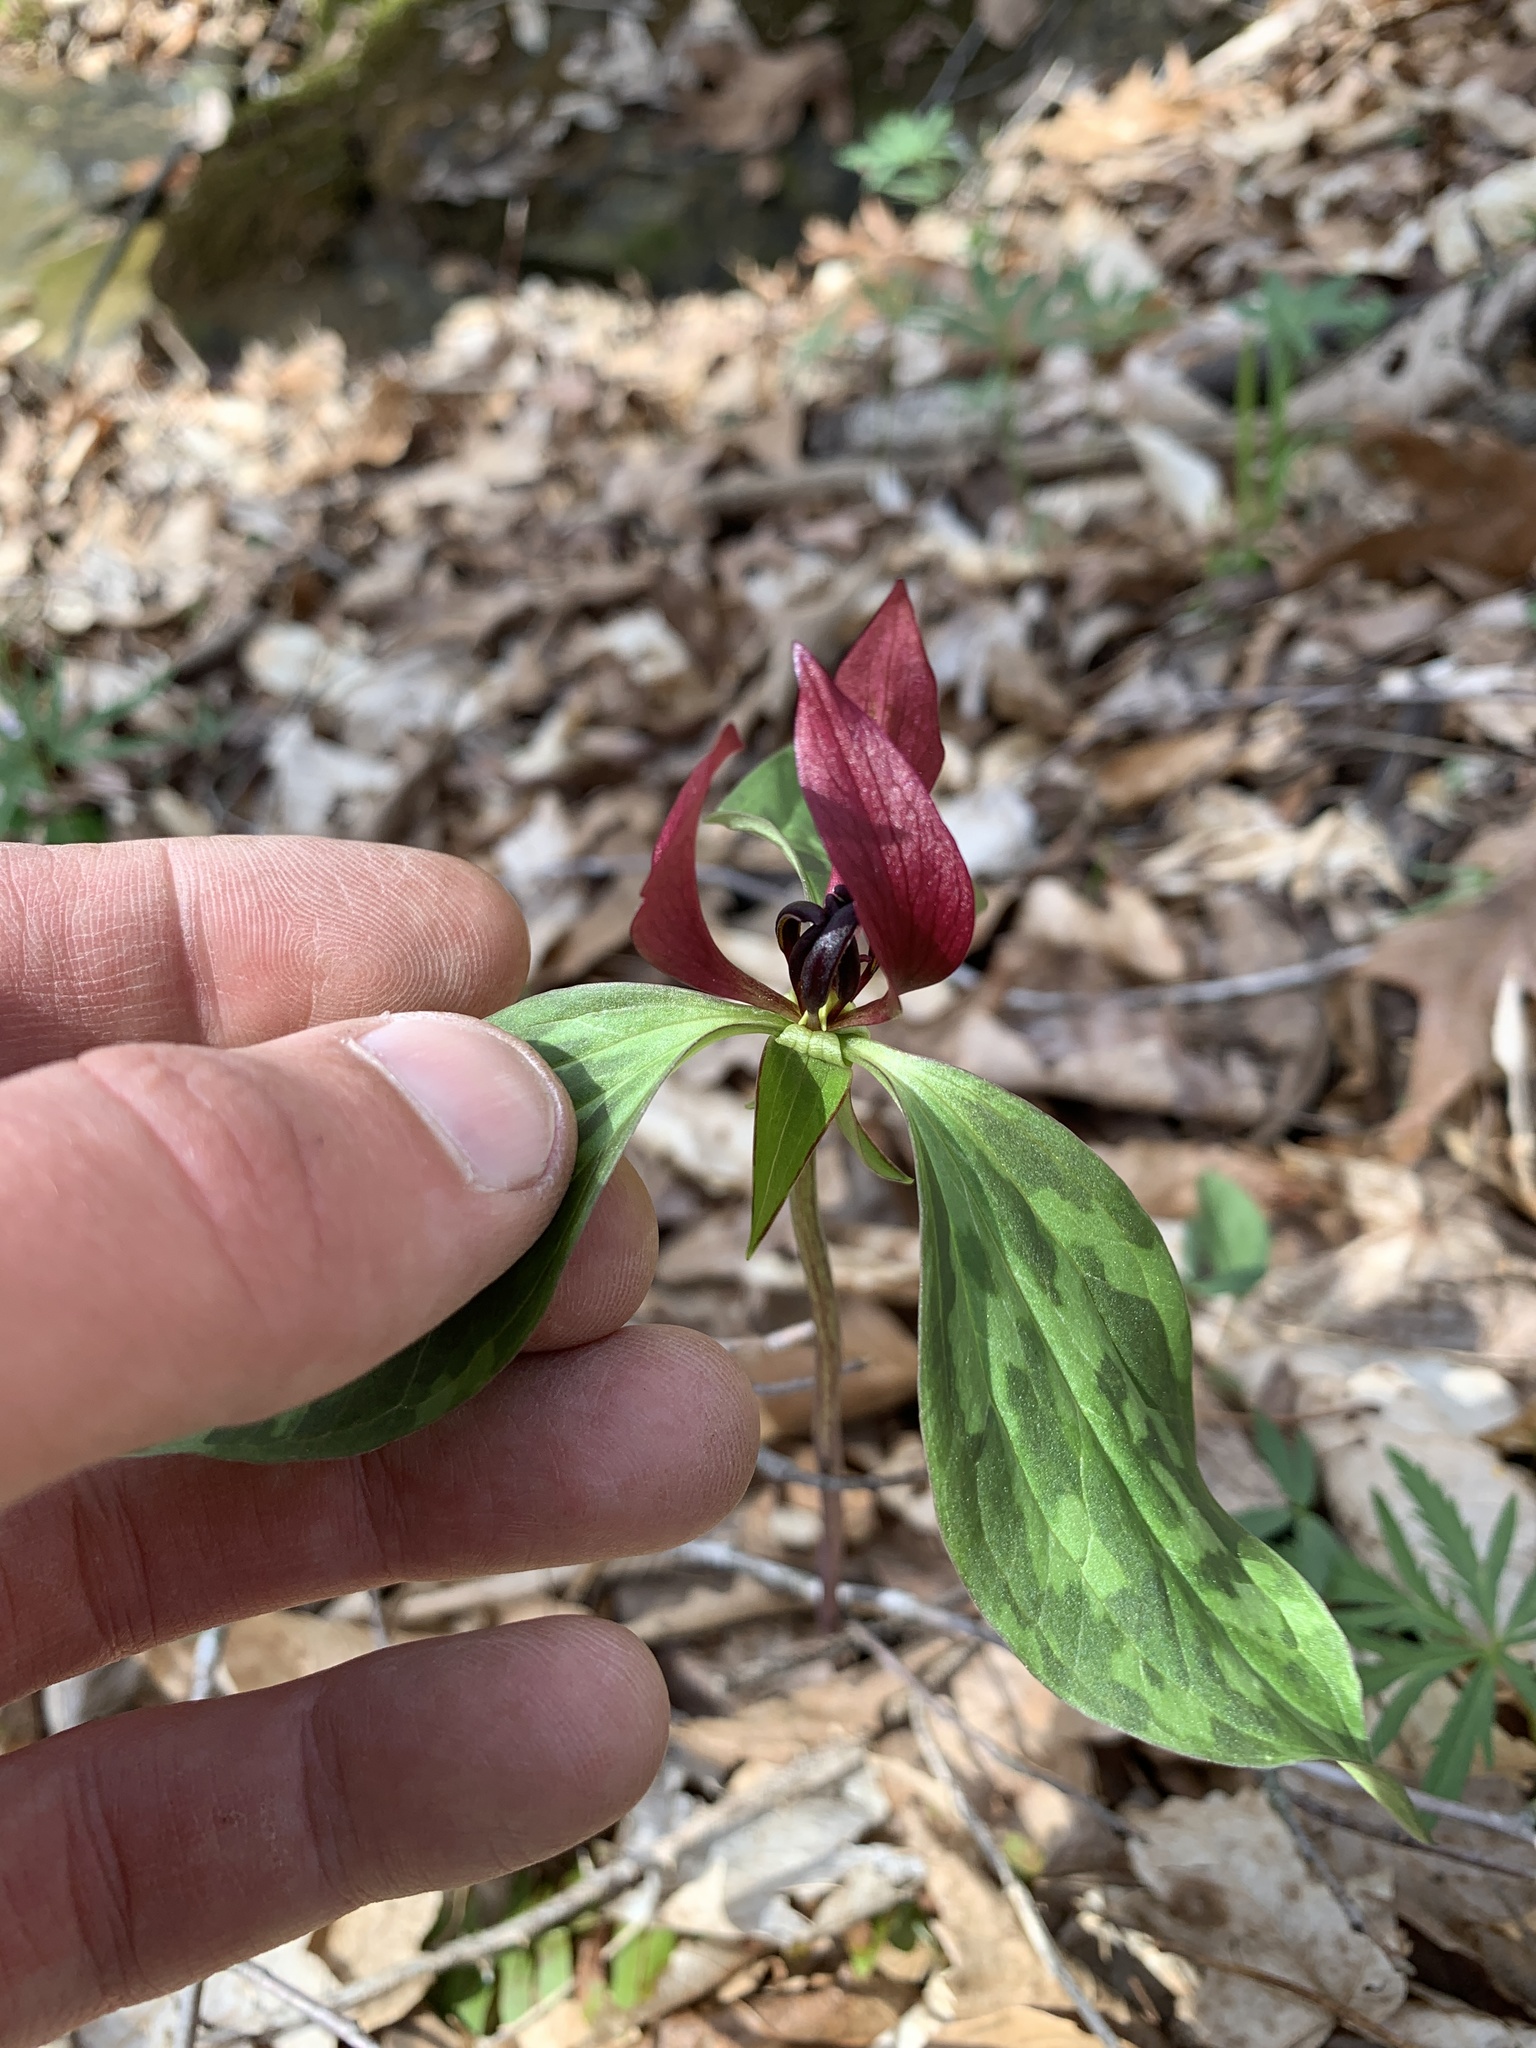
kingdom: Plantae
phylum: Tracheophyta
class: Liliopsida
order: Liliales
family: Melanthiaceae
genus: Trillium
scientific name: Trillium recurvatum
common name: Bloody butcher
